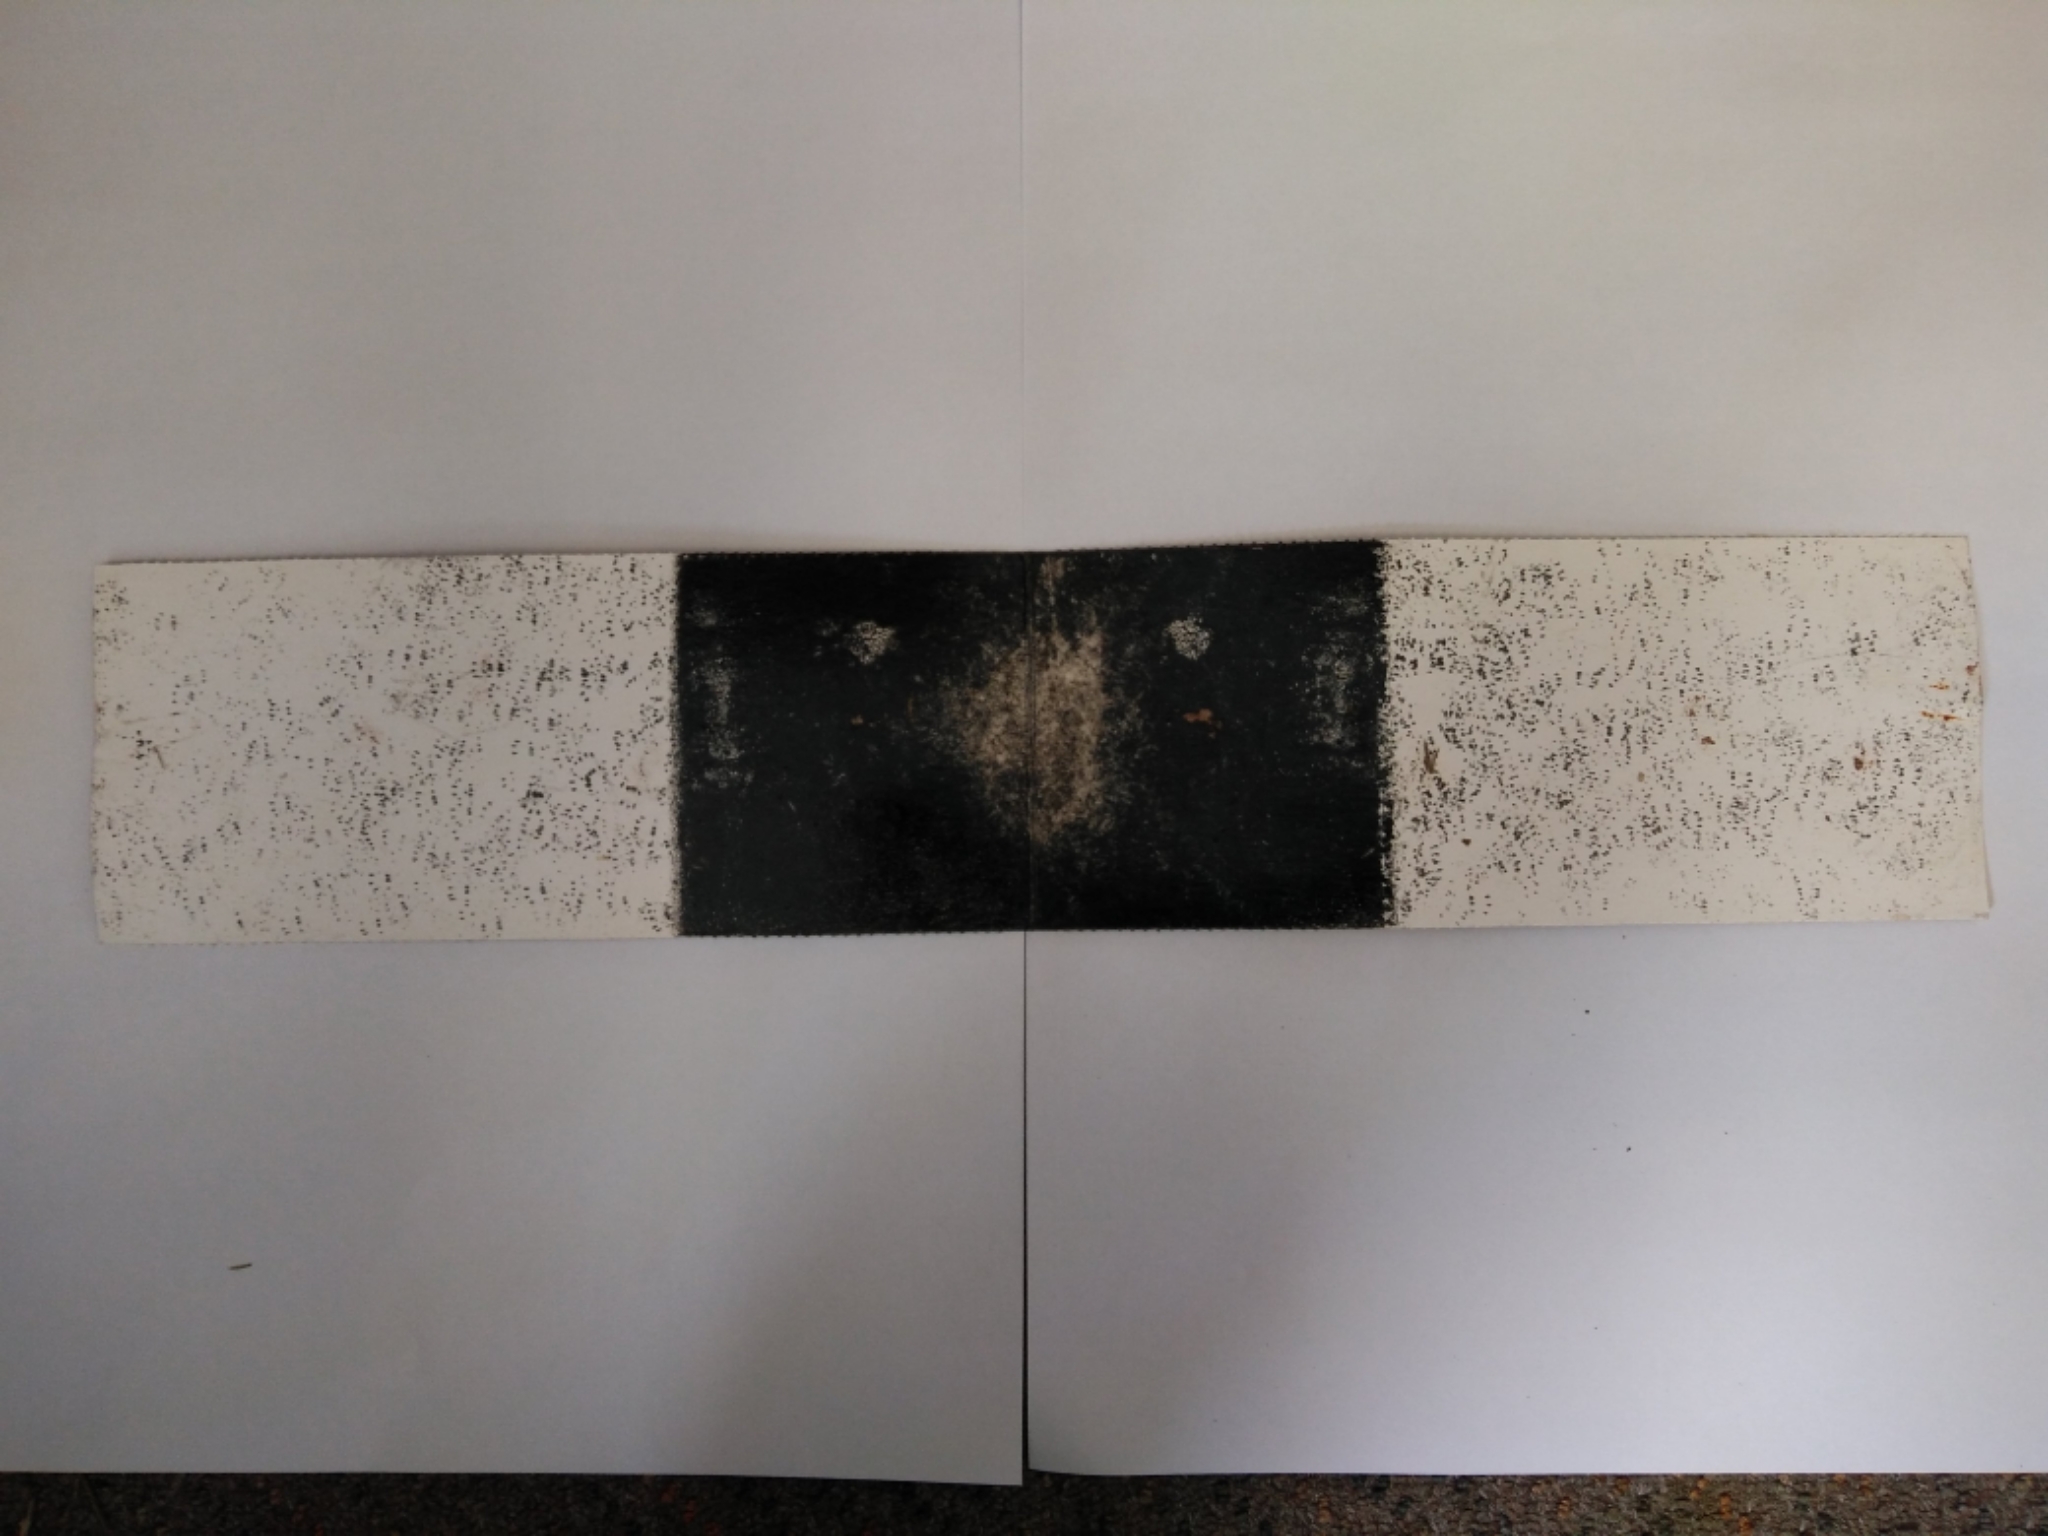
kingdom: Animalia
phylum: Chordata
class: Mammalia
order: Rodentia
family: Muridae
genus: Mus
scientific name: Mus musculus
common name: House mouse
